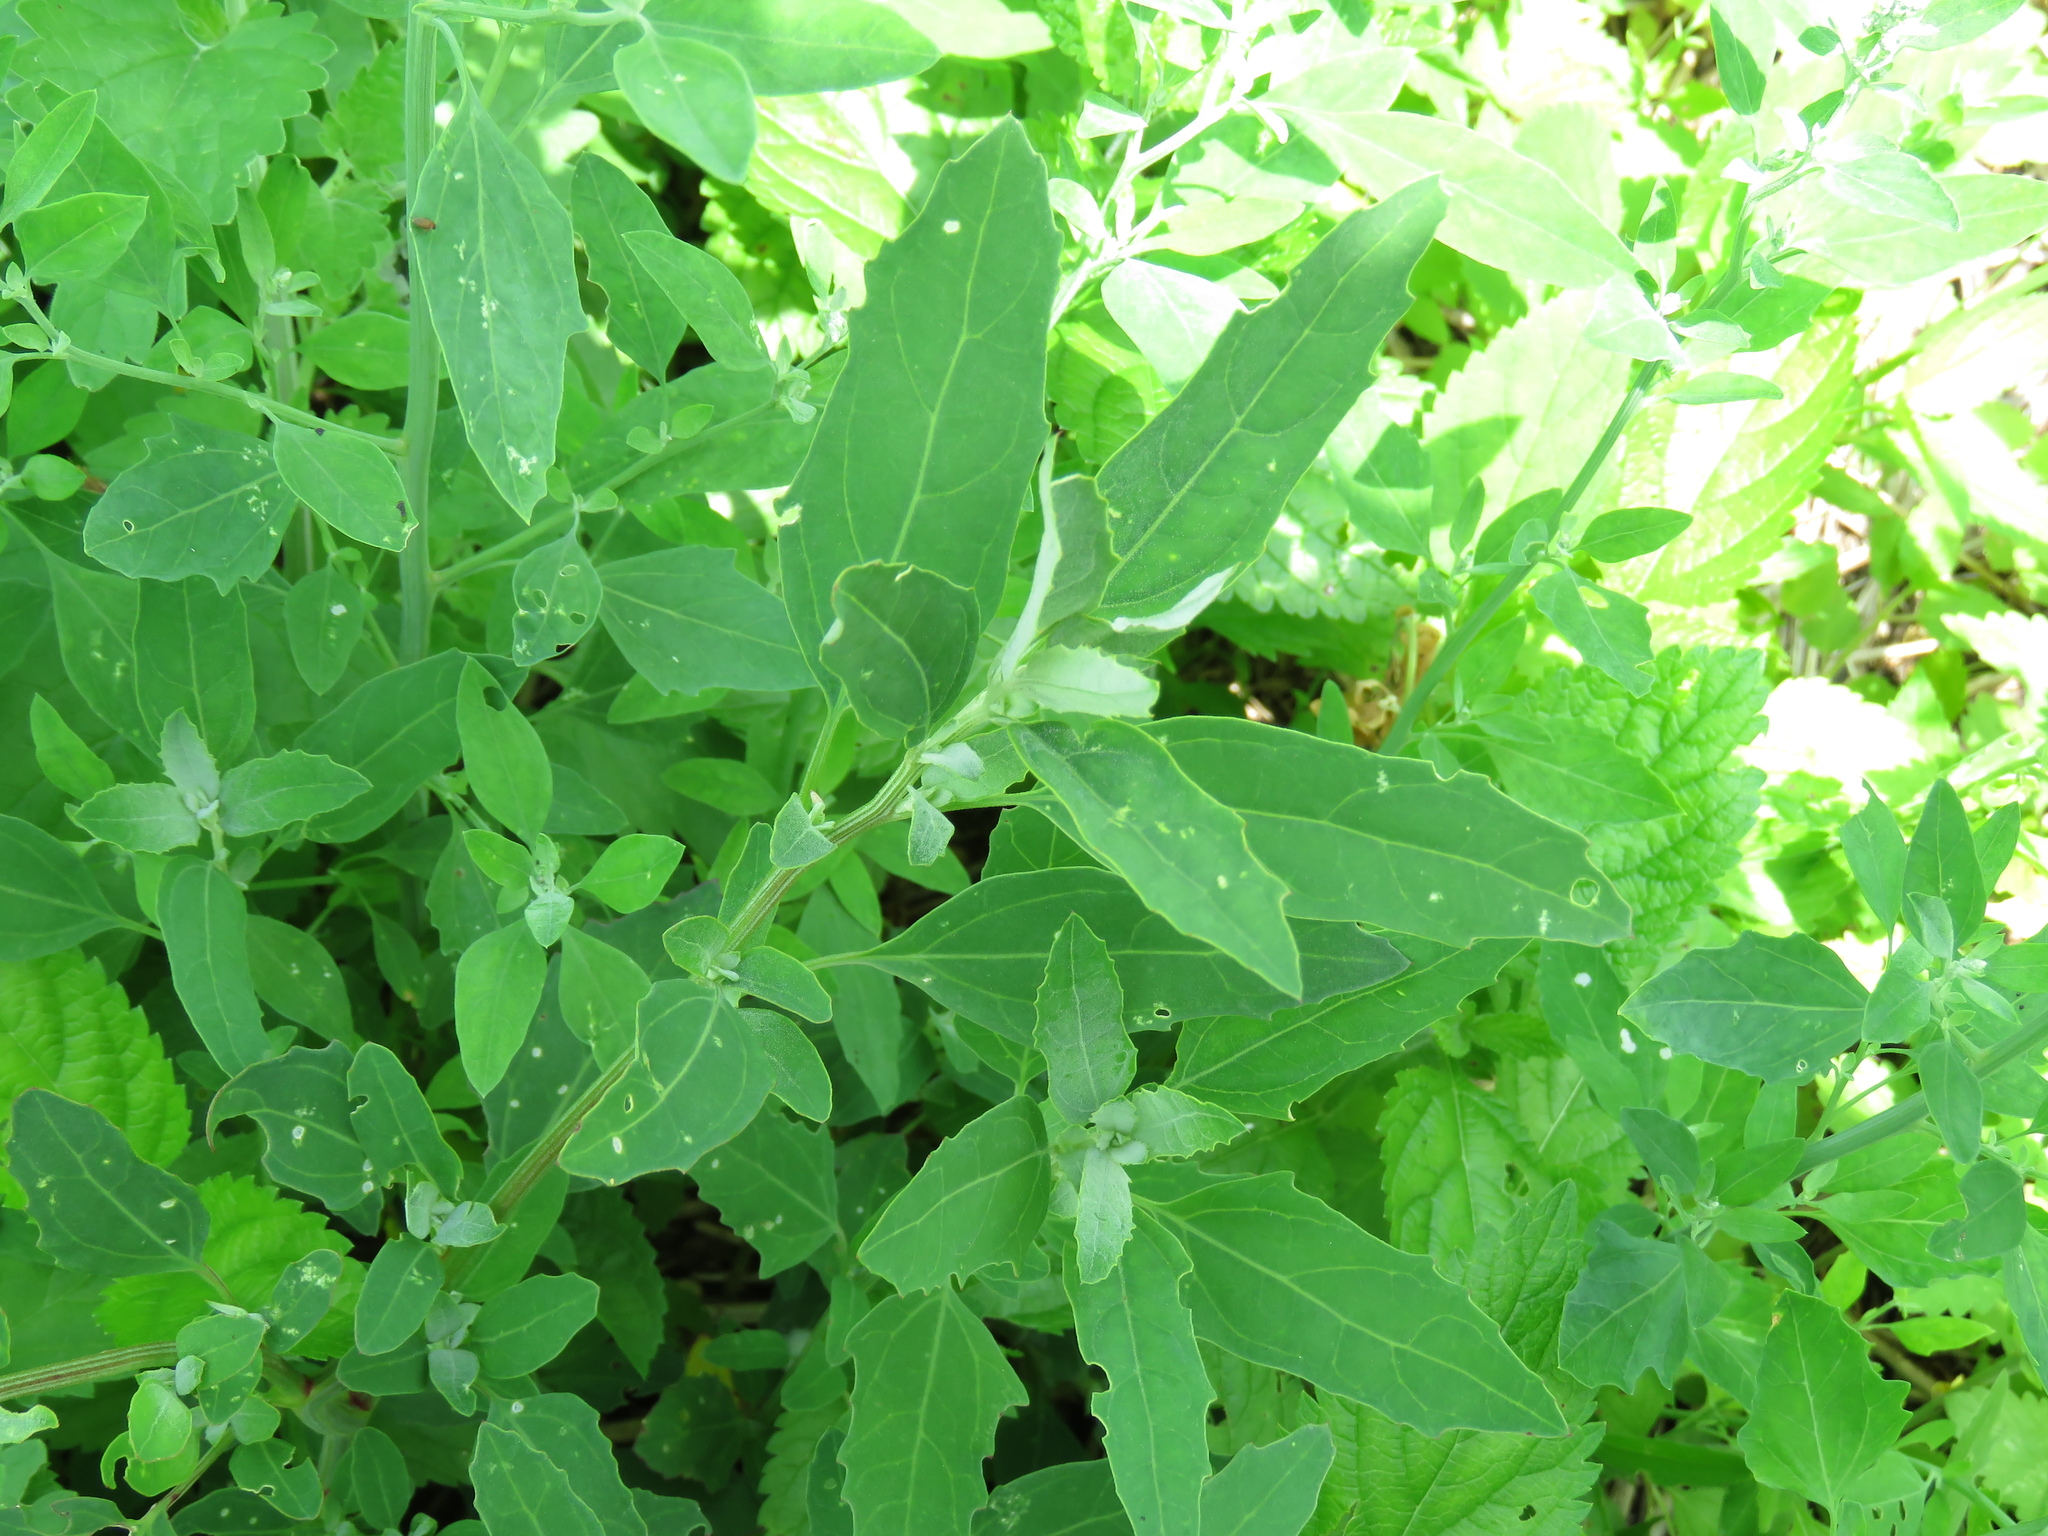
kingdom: Plantae
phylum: Tracheophyta
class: Magnoliopsida
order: Caryophyllales
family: Amaranthaceae
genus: Chenopodium
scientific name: Chenopodium album
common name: Fat-hen
